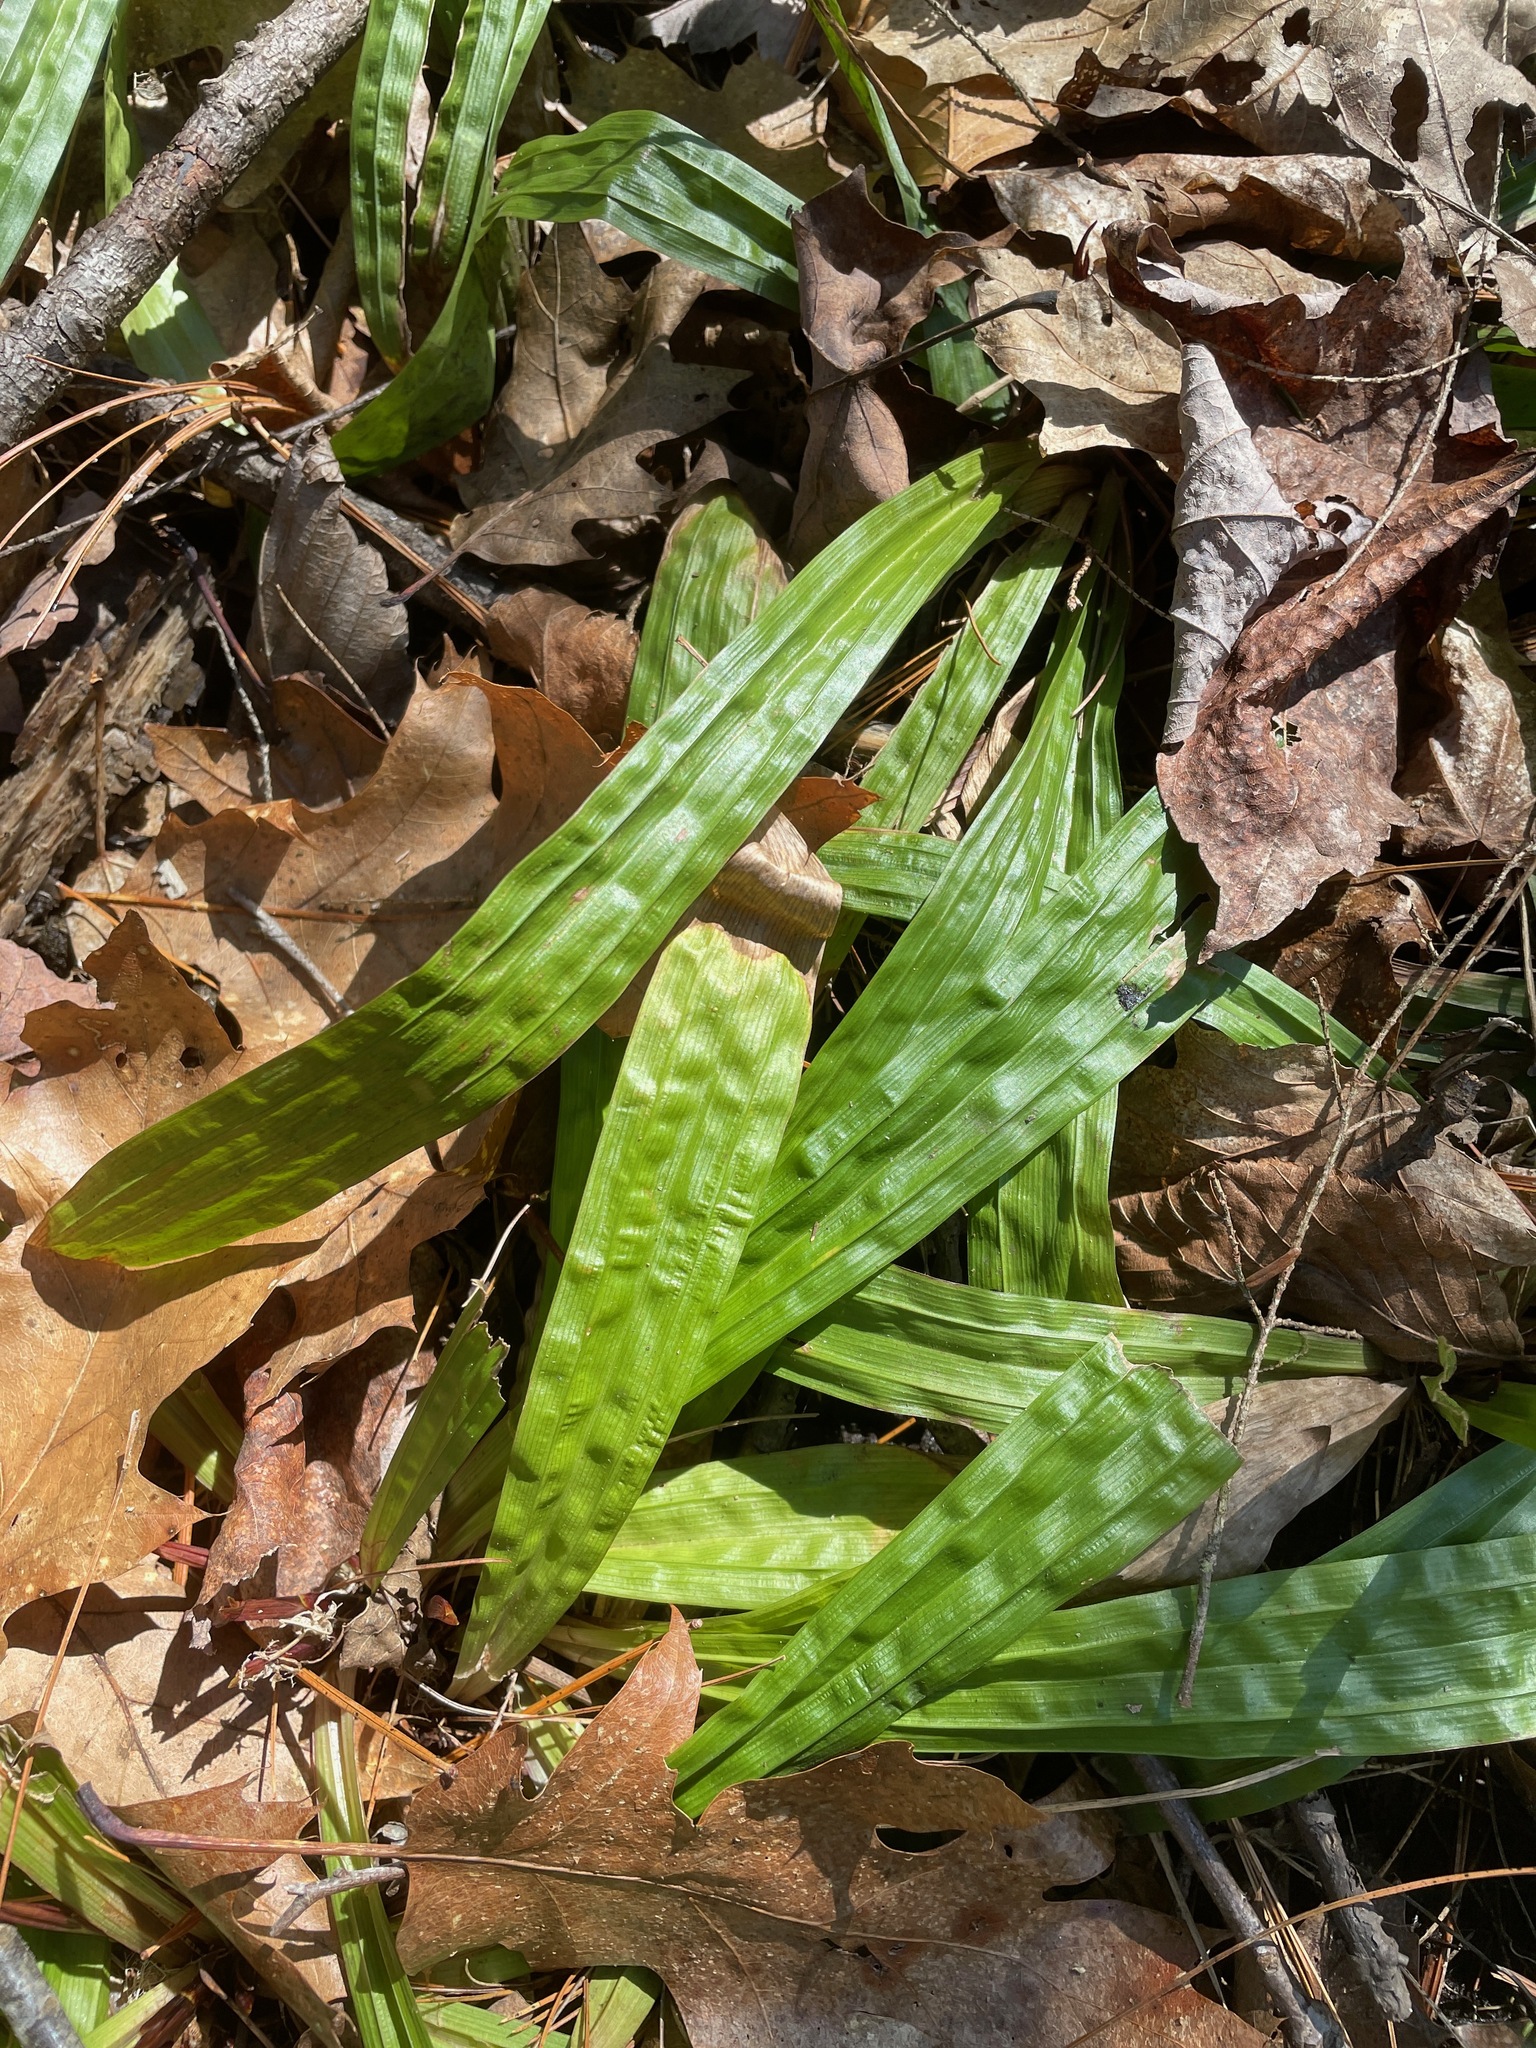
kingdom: Plantae
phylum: Tracheophyta
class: Liliopsida
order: Poales
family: Cyperaceae
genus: Carex
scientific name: Carex plantaginea
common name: Plantain-leaved sedge
